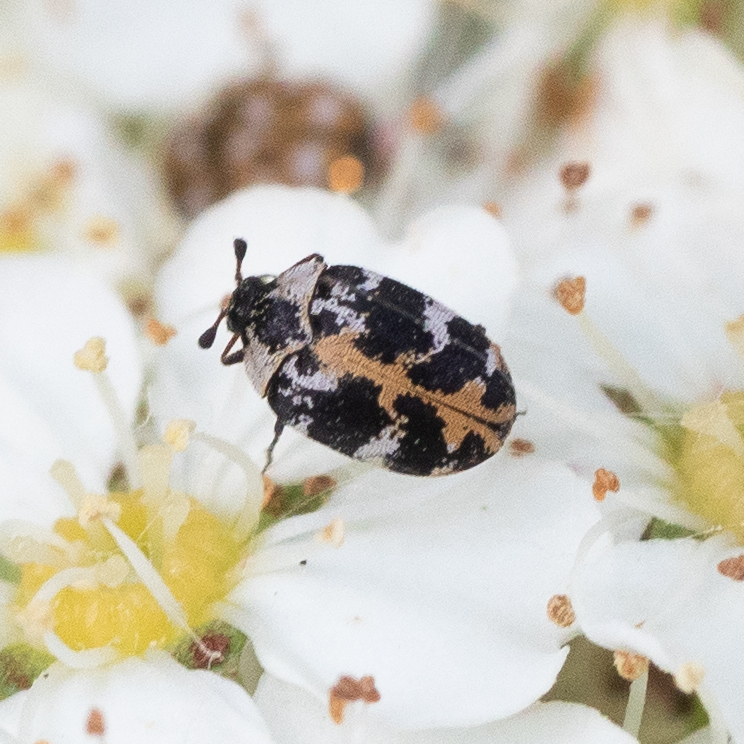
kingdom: Animalia
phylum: Arthropoda
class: Insecta
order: Coleoptera
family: Dermestidae
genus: Anthrenus
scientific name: Anthrenus scrophulariae
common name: Buffalo carpet beetle
